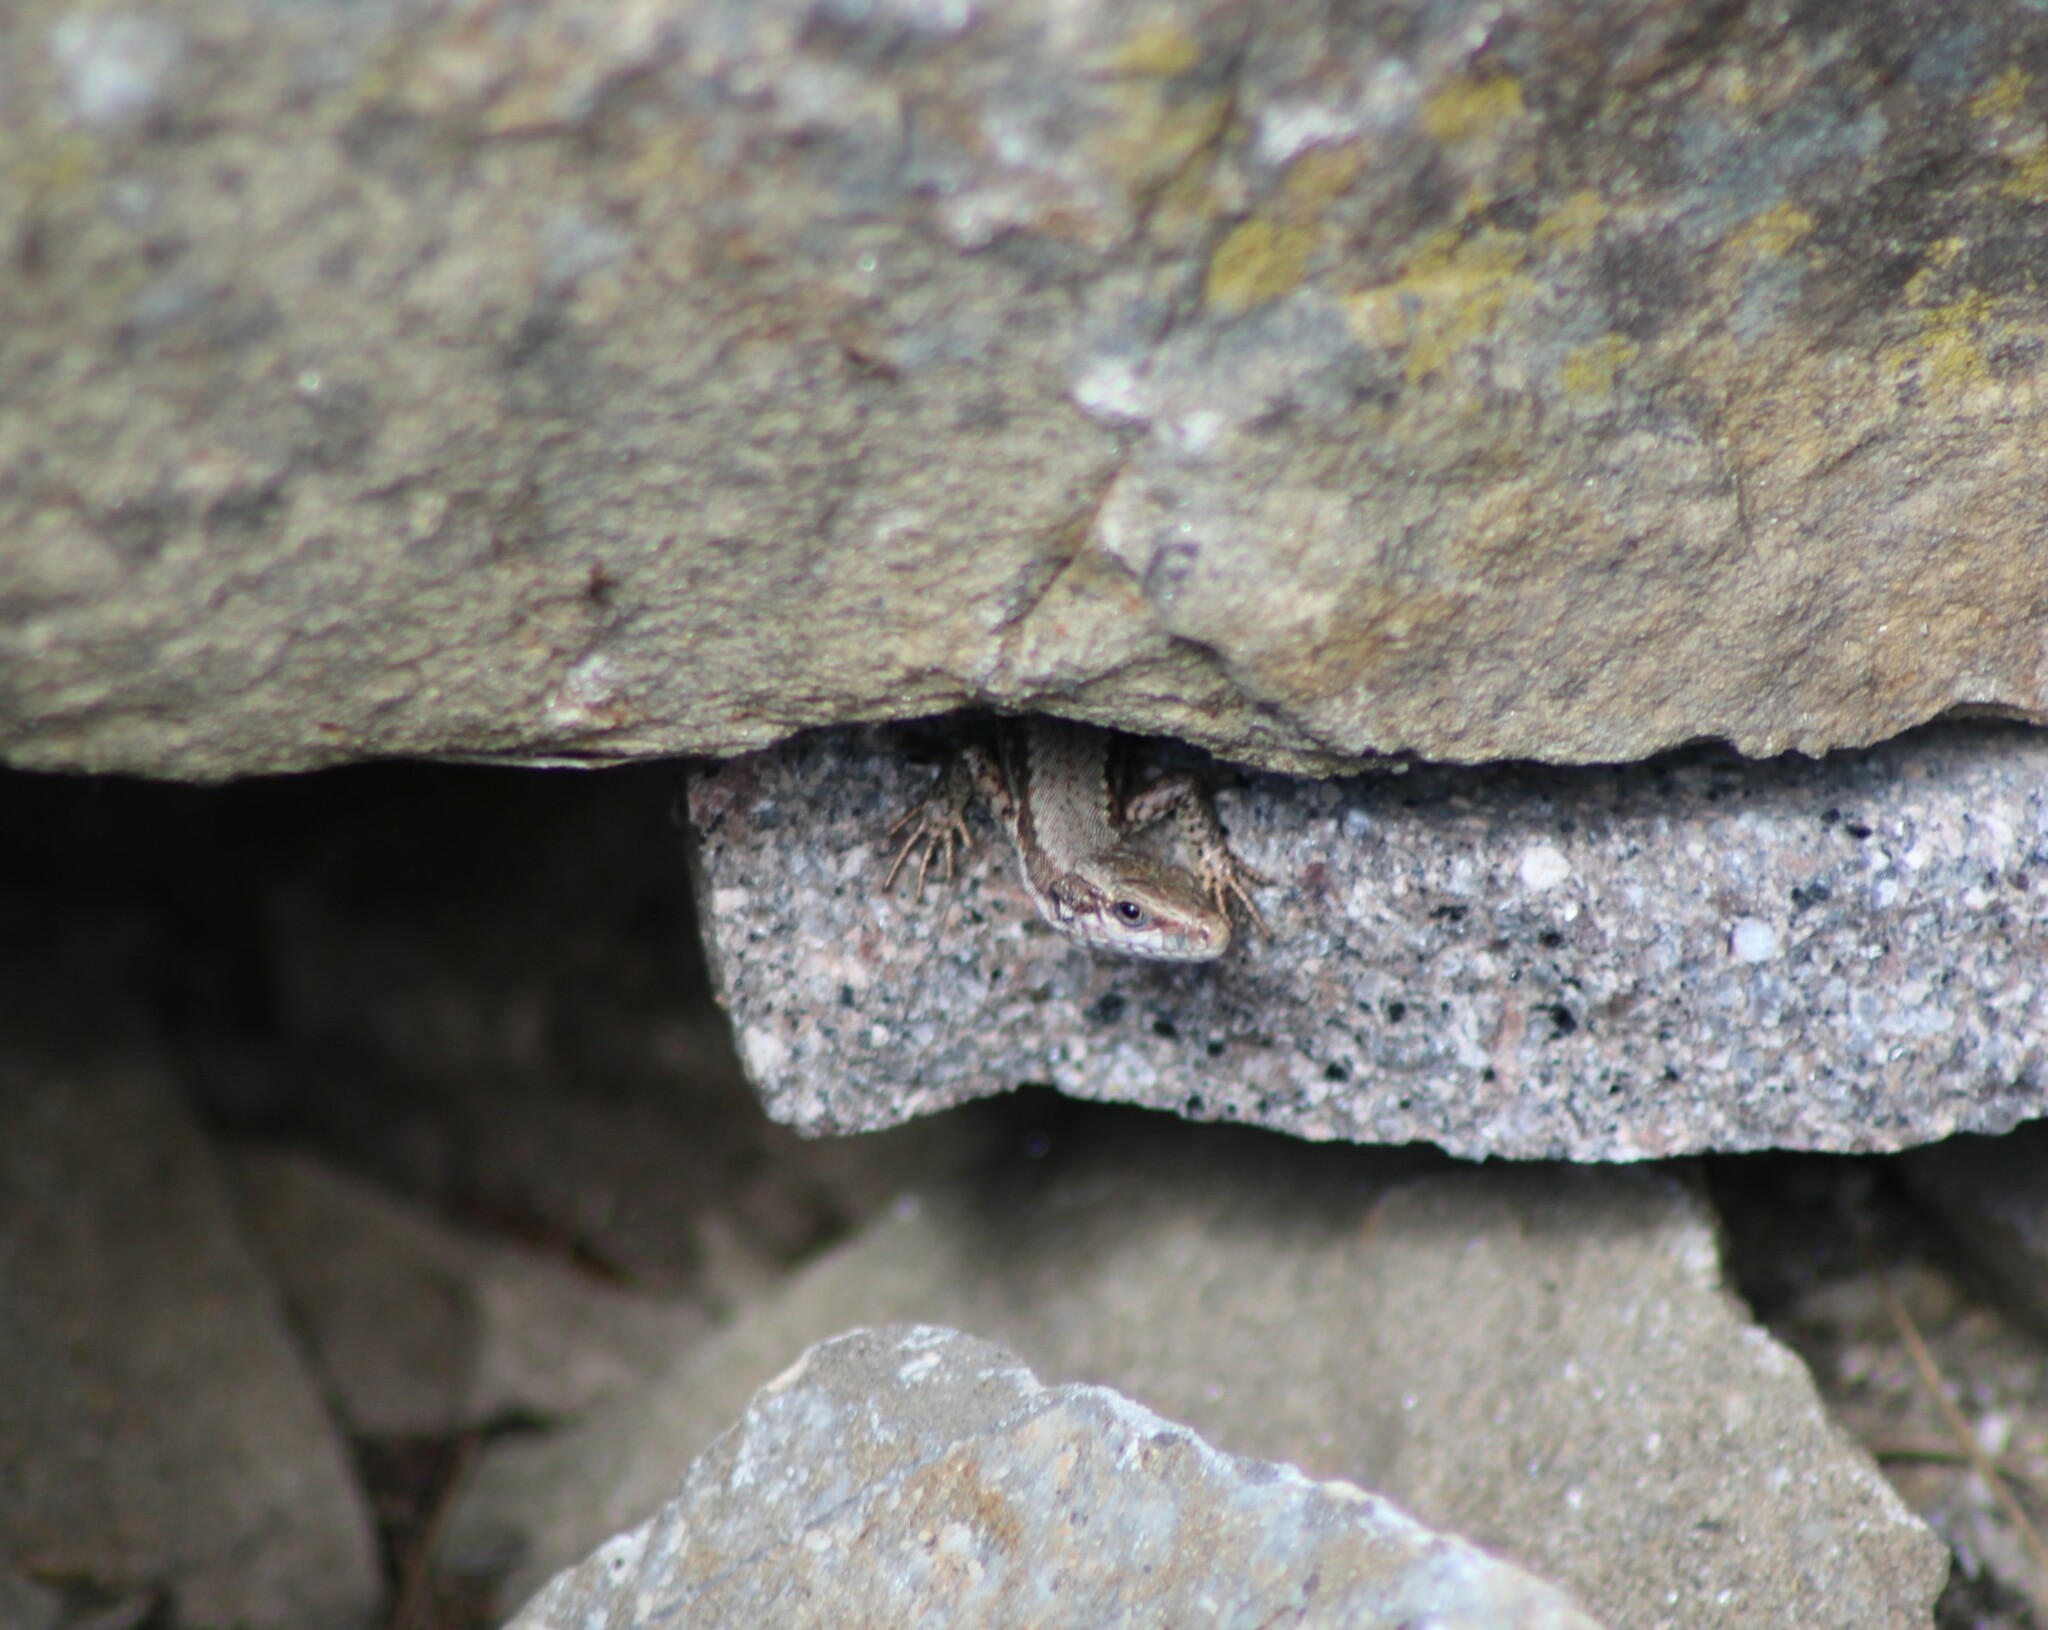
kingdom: Animalia
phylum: Chordata
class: Squamata
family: Lacertidae
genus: Podarcis
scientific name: Podarcis muralis
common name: Common wall lizard
